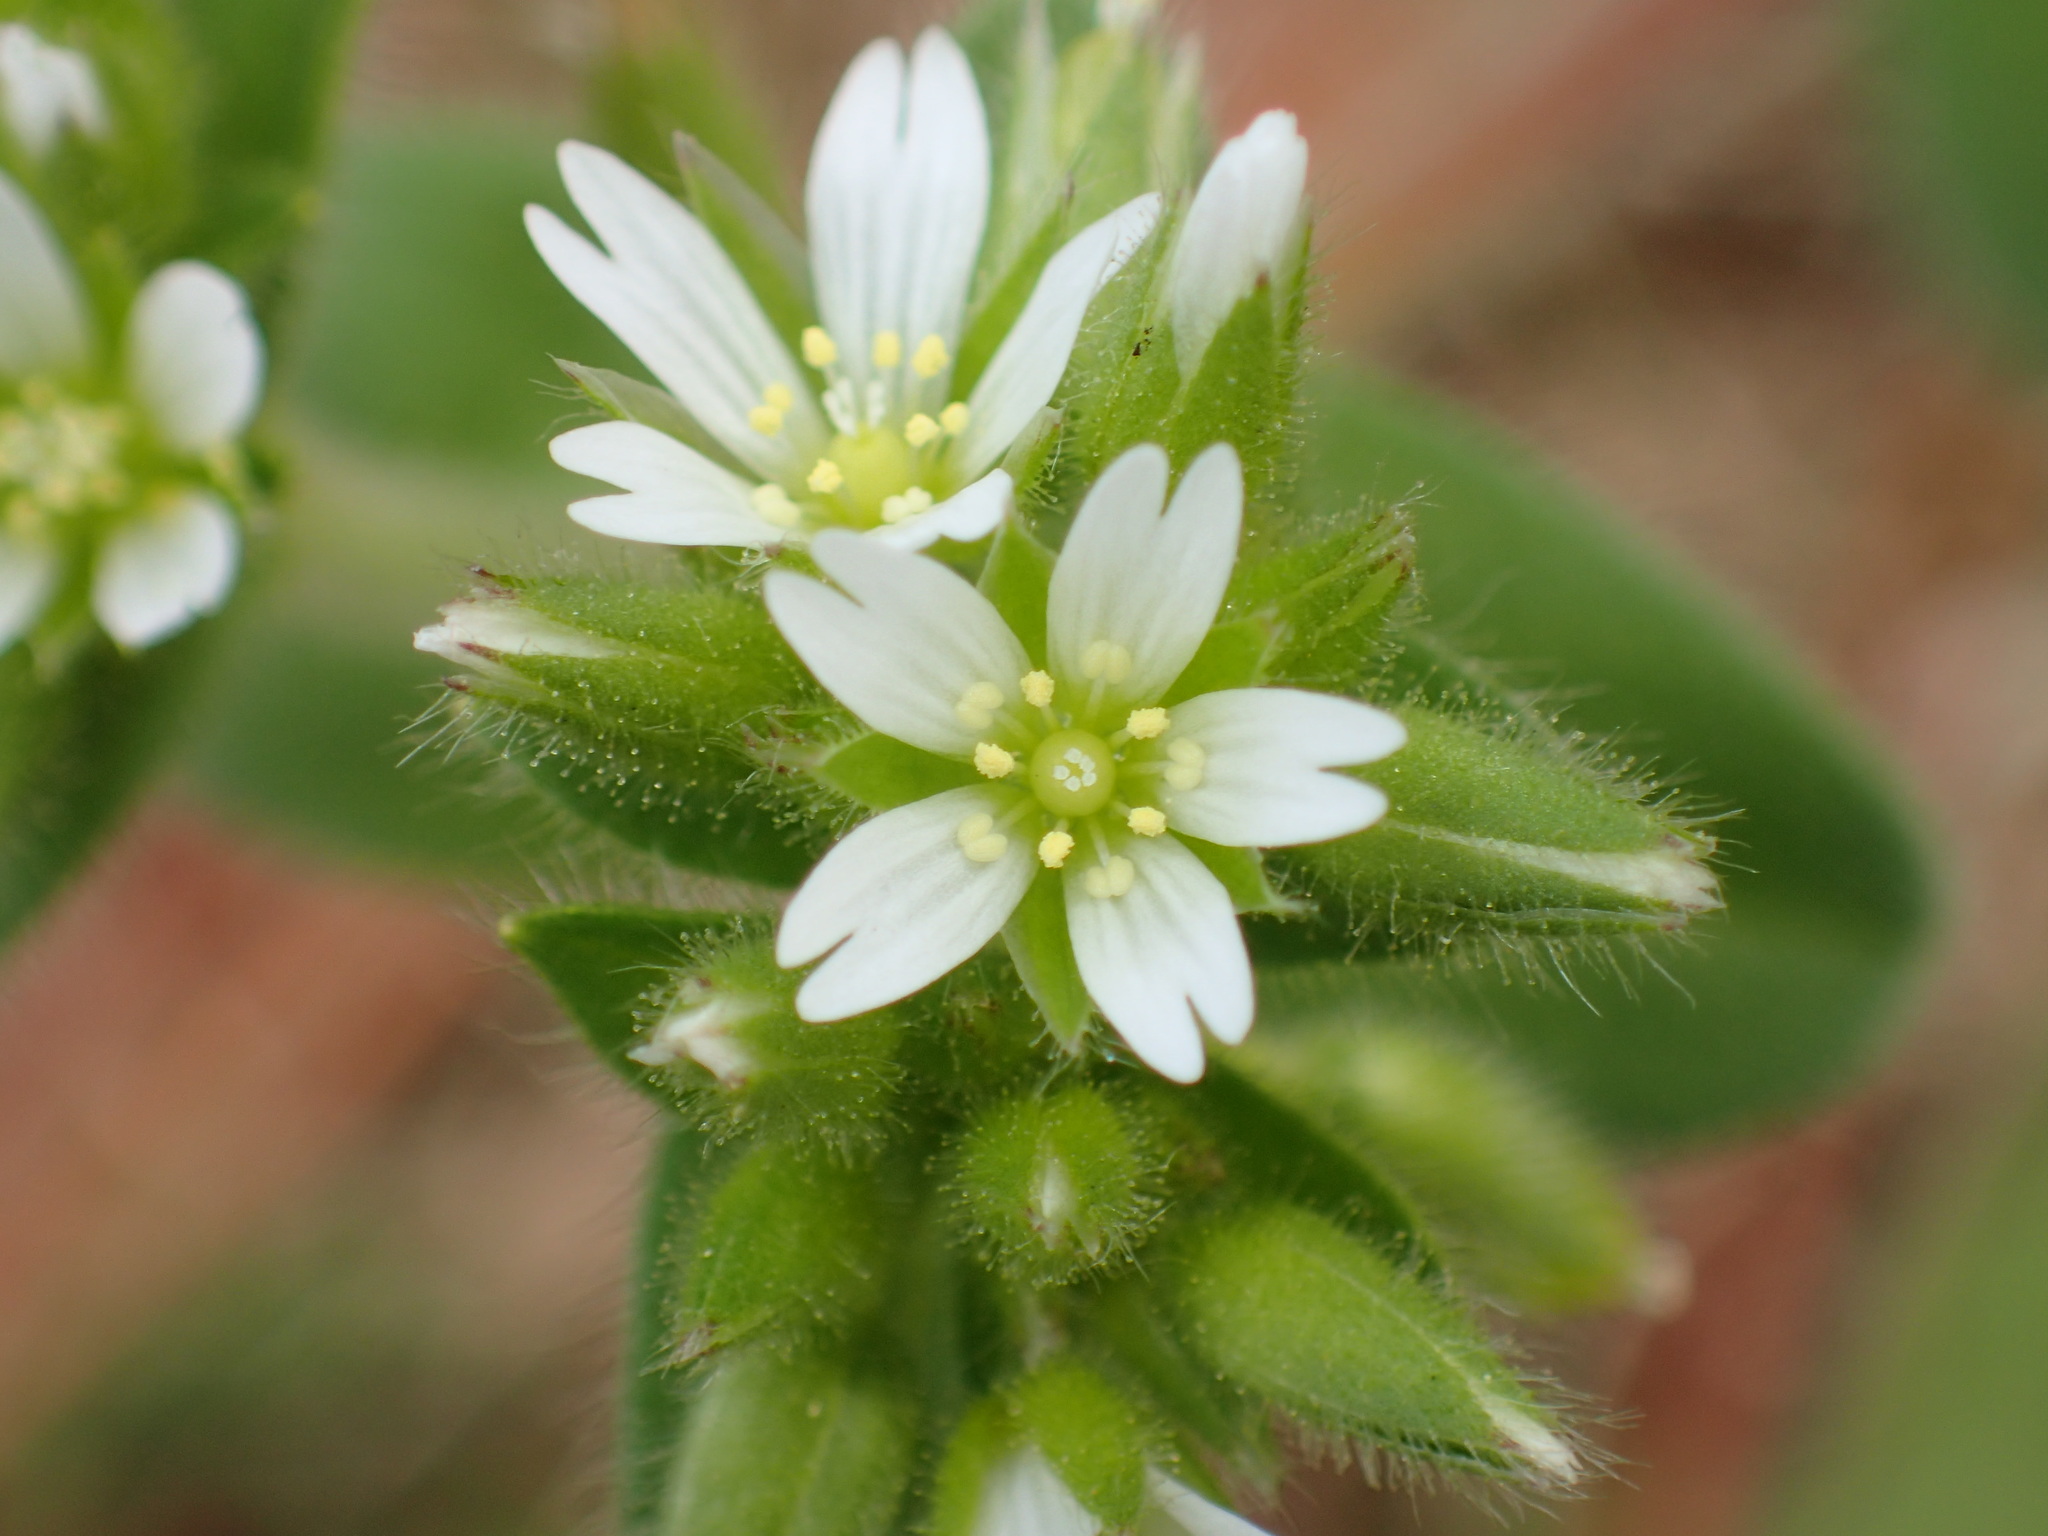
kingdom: Plantae
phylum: Tracheophyta
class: Magnoliopsida
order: Caryophyllales
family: Caryophyllaceae
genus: Cerastium
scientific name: Cerastium glomeratum
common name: Sticky chickweed
